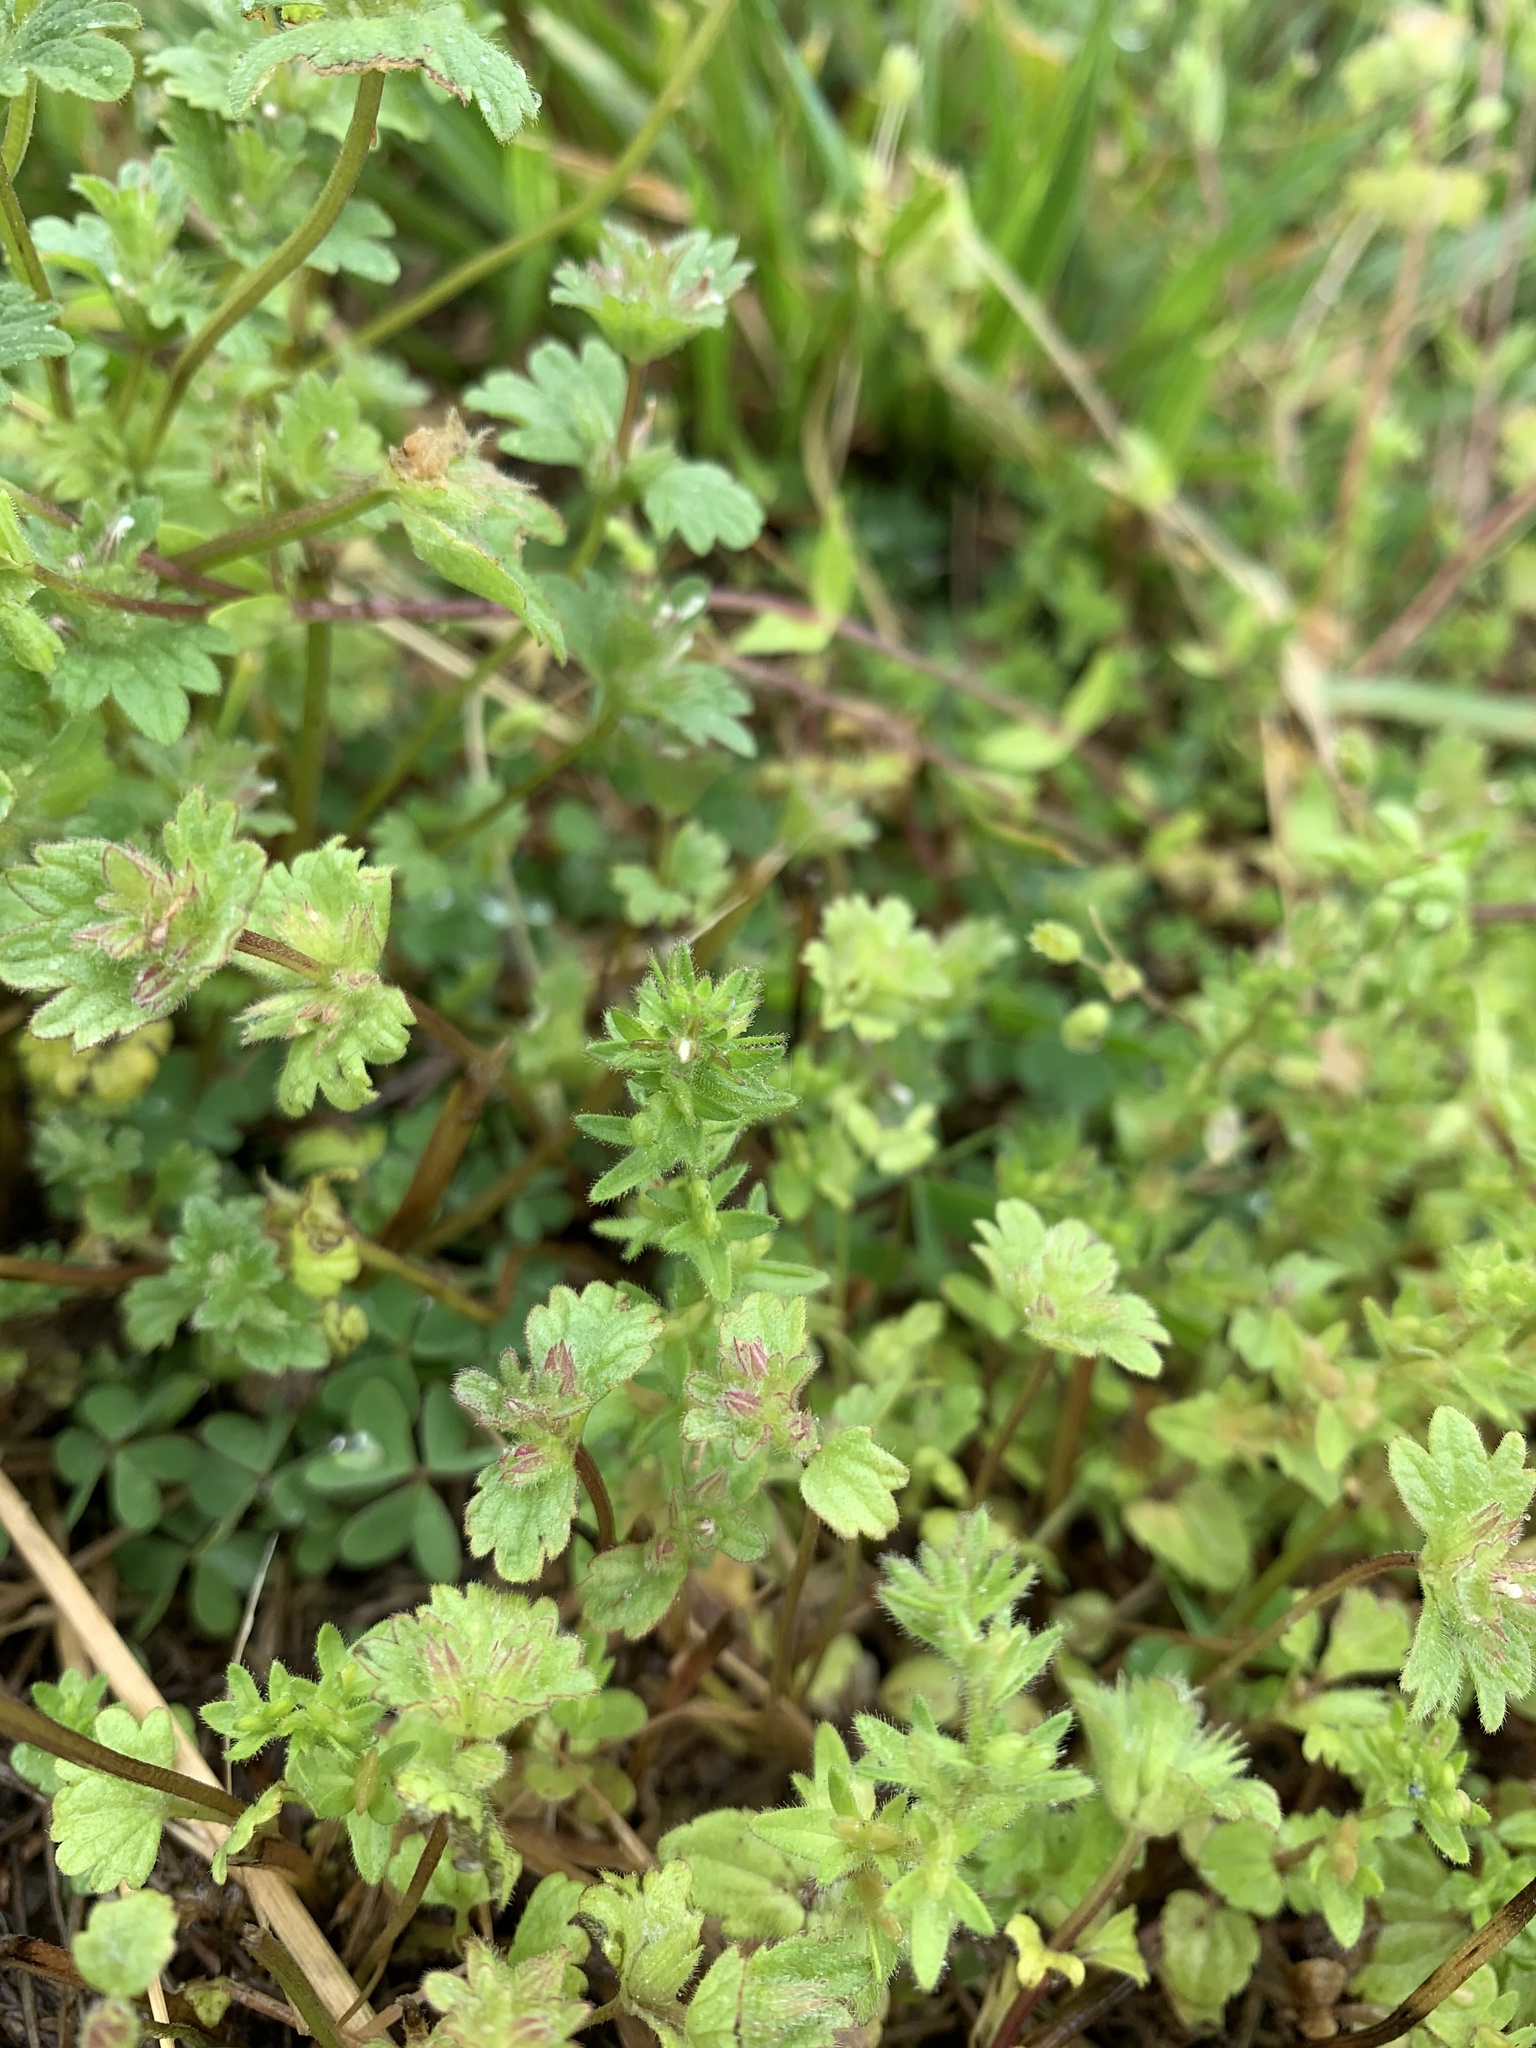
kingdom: Plantae
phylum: Tracheophyta
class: Magnoliopsida
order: Lamiales
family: Plantaginaceae
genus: Veronica
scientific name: Veronica arvensis
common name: Corn speedwell
